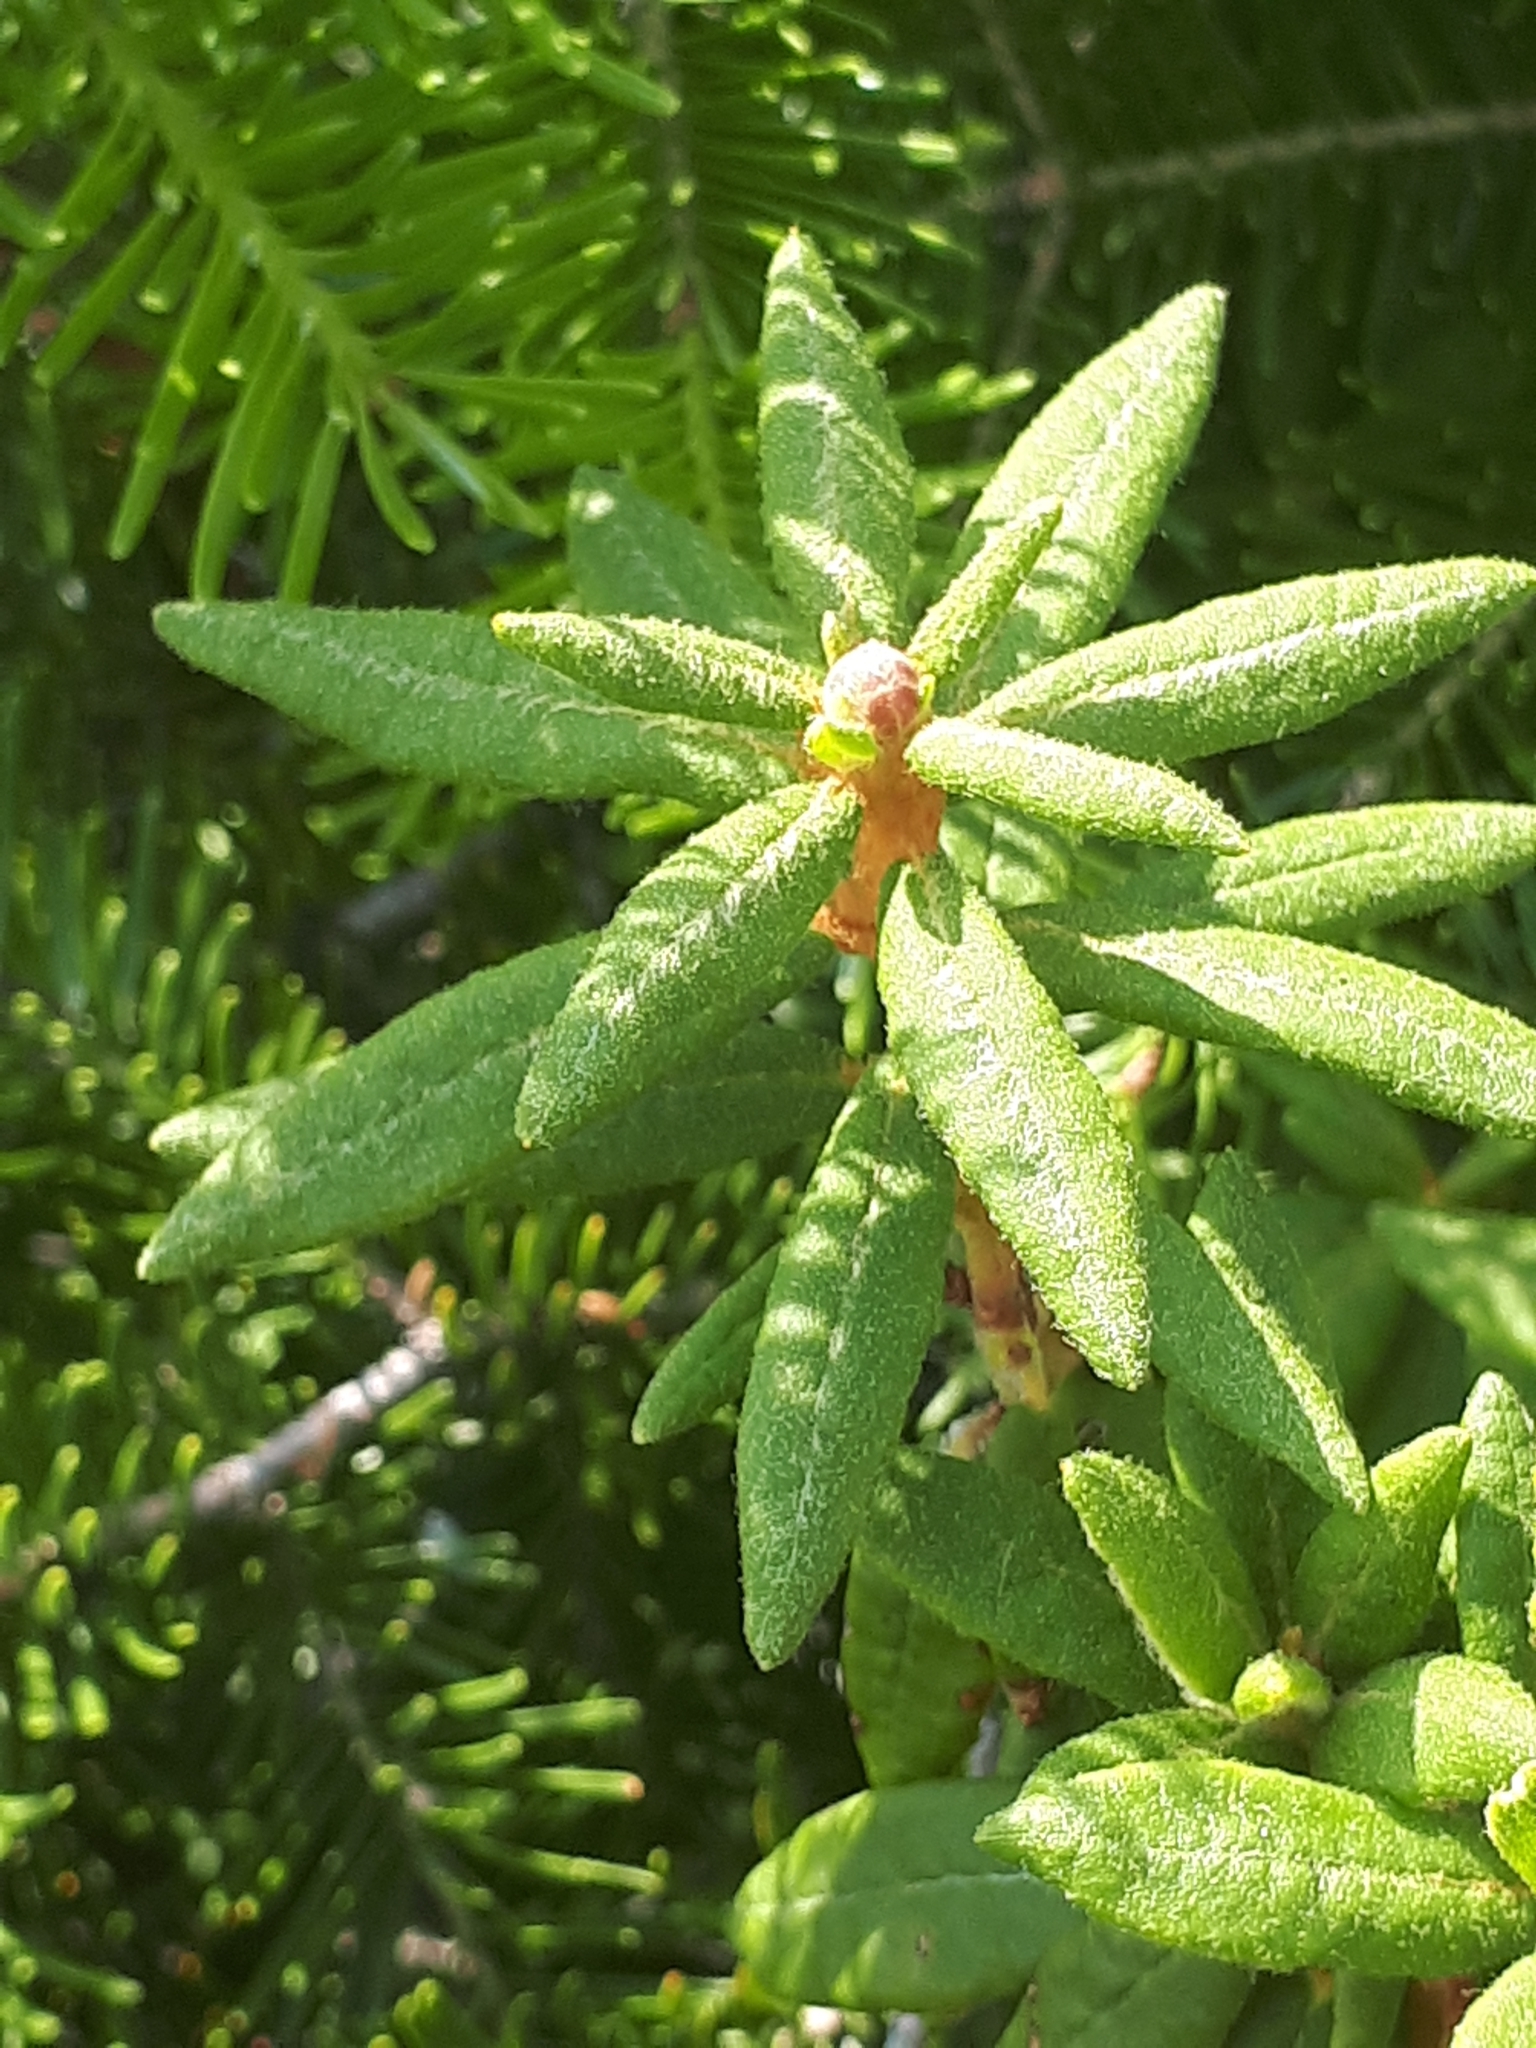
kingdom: Plantae
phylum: Tracheophyta
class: Magnoliopsida
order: Ericales
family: Ericaceae
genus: Rhododendron
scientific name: Rhododendron groenlandicum
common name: Bog labrador tea
